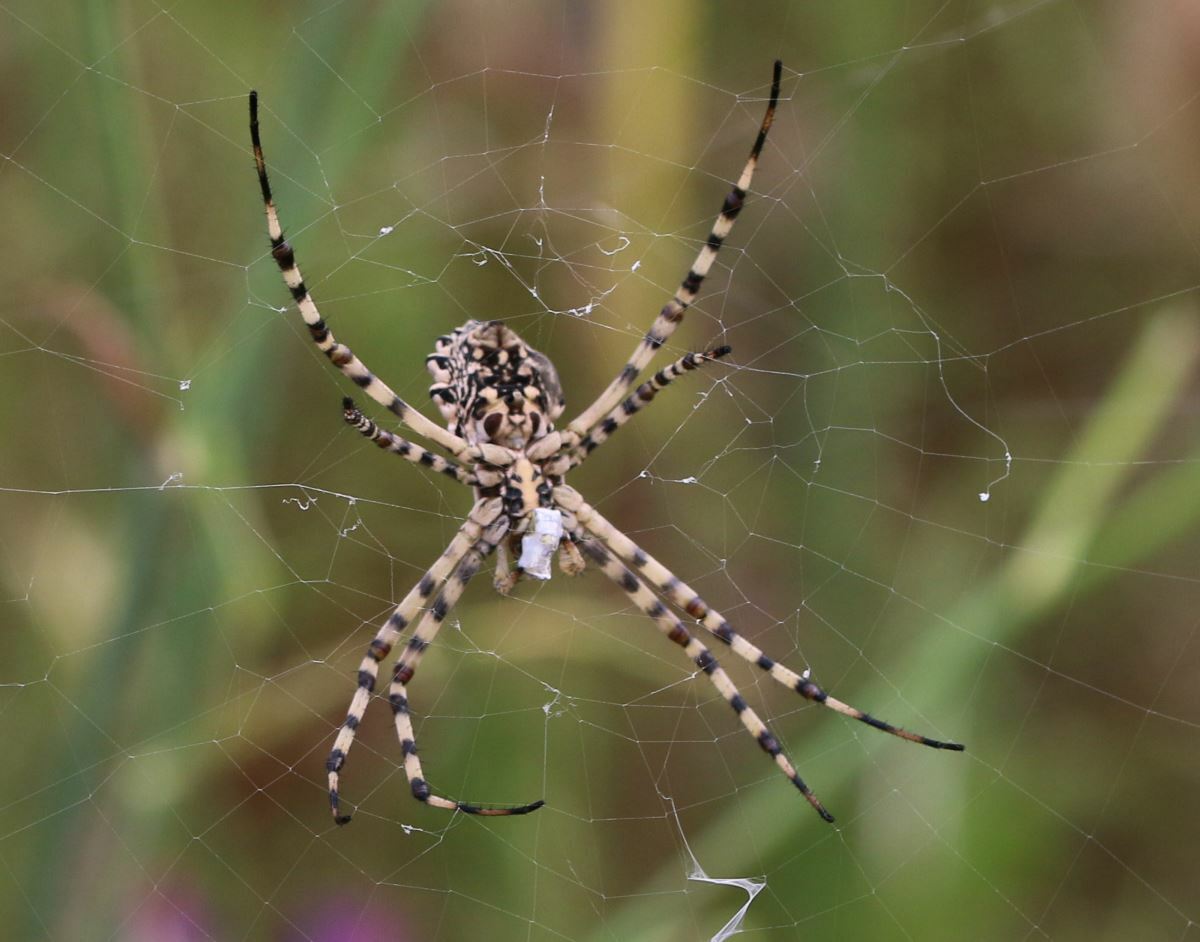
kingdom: Animalia
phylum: Arthropoda
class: Arachnida
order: Araneae
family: Araneidae
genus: Argiope
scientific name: Argiope lobata
